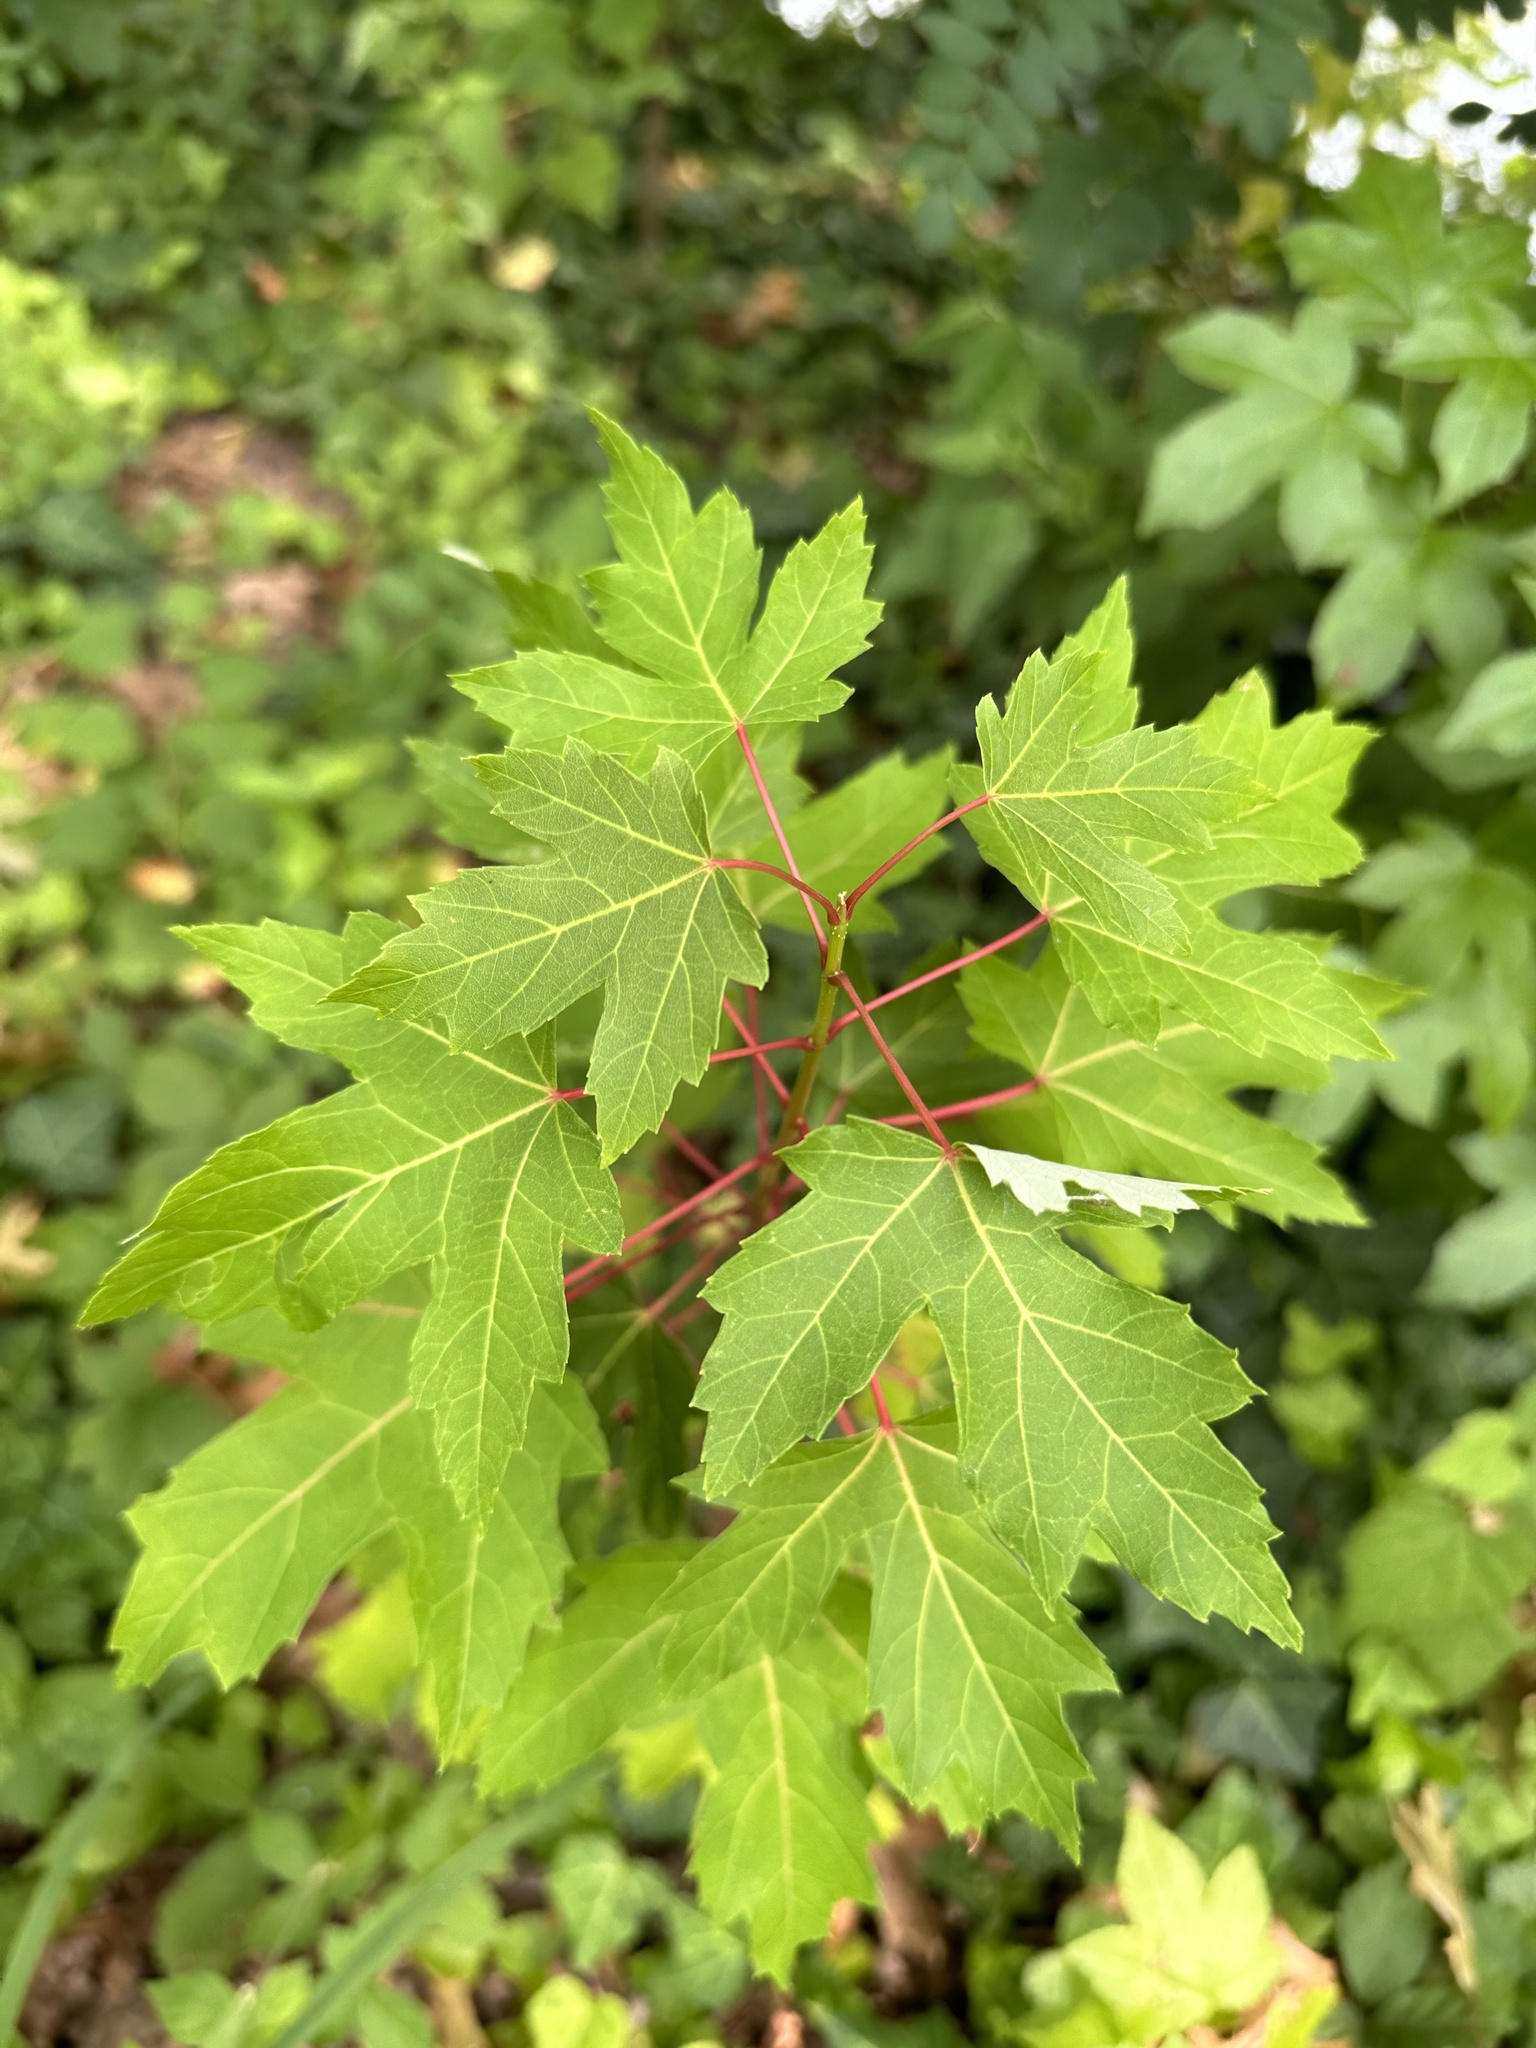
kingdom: Plantae
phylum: Tracheophyta
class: Magnoliopsida
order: Sapindales
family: Sapindaceae
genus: Acer
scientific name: Acer rubrum
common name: Red maple
